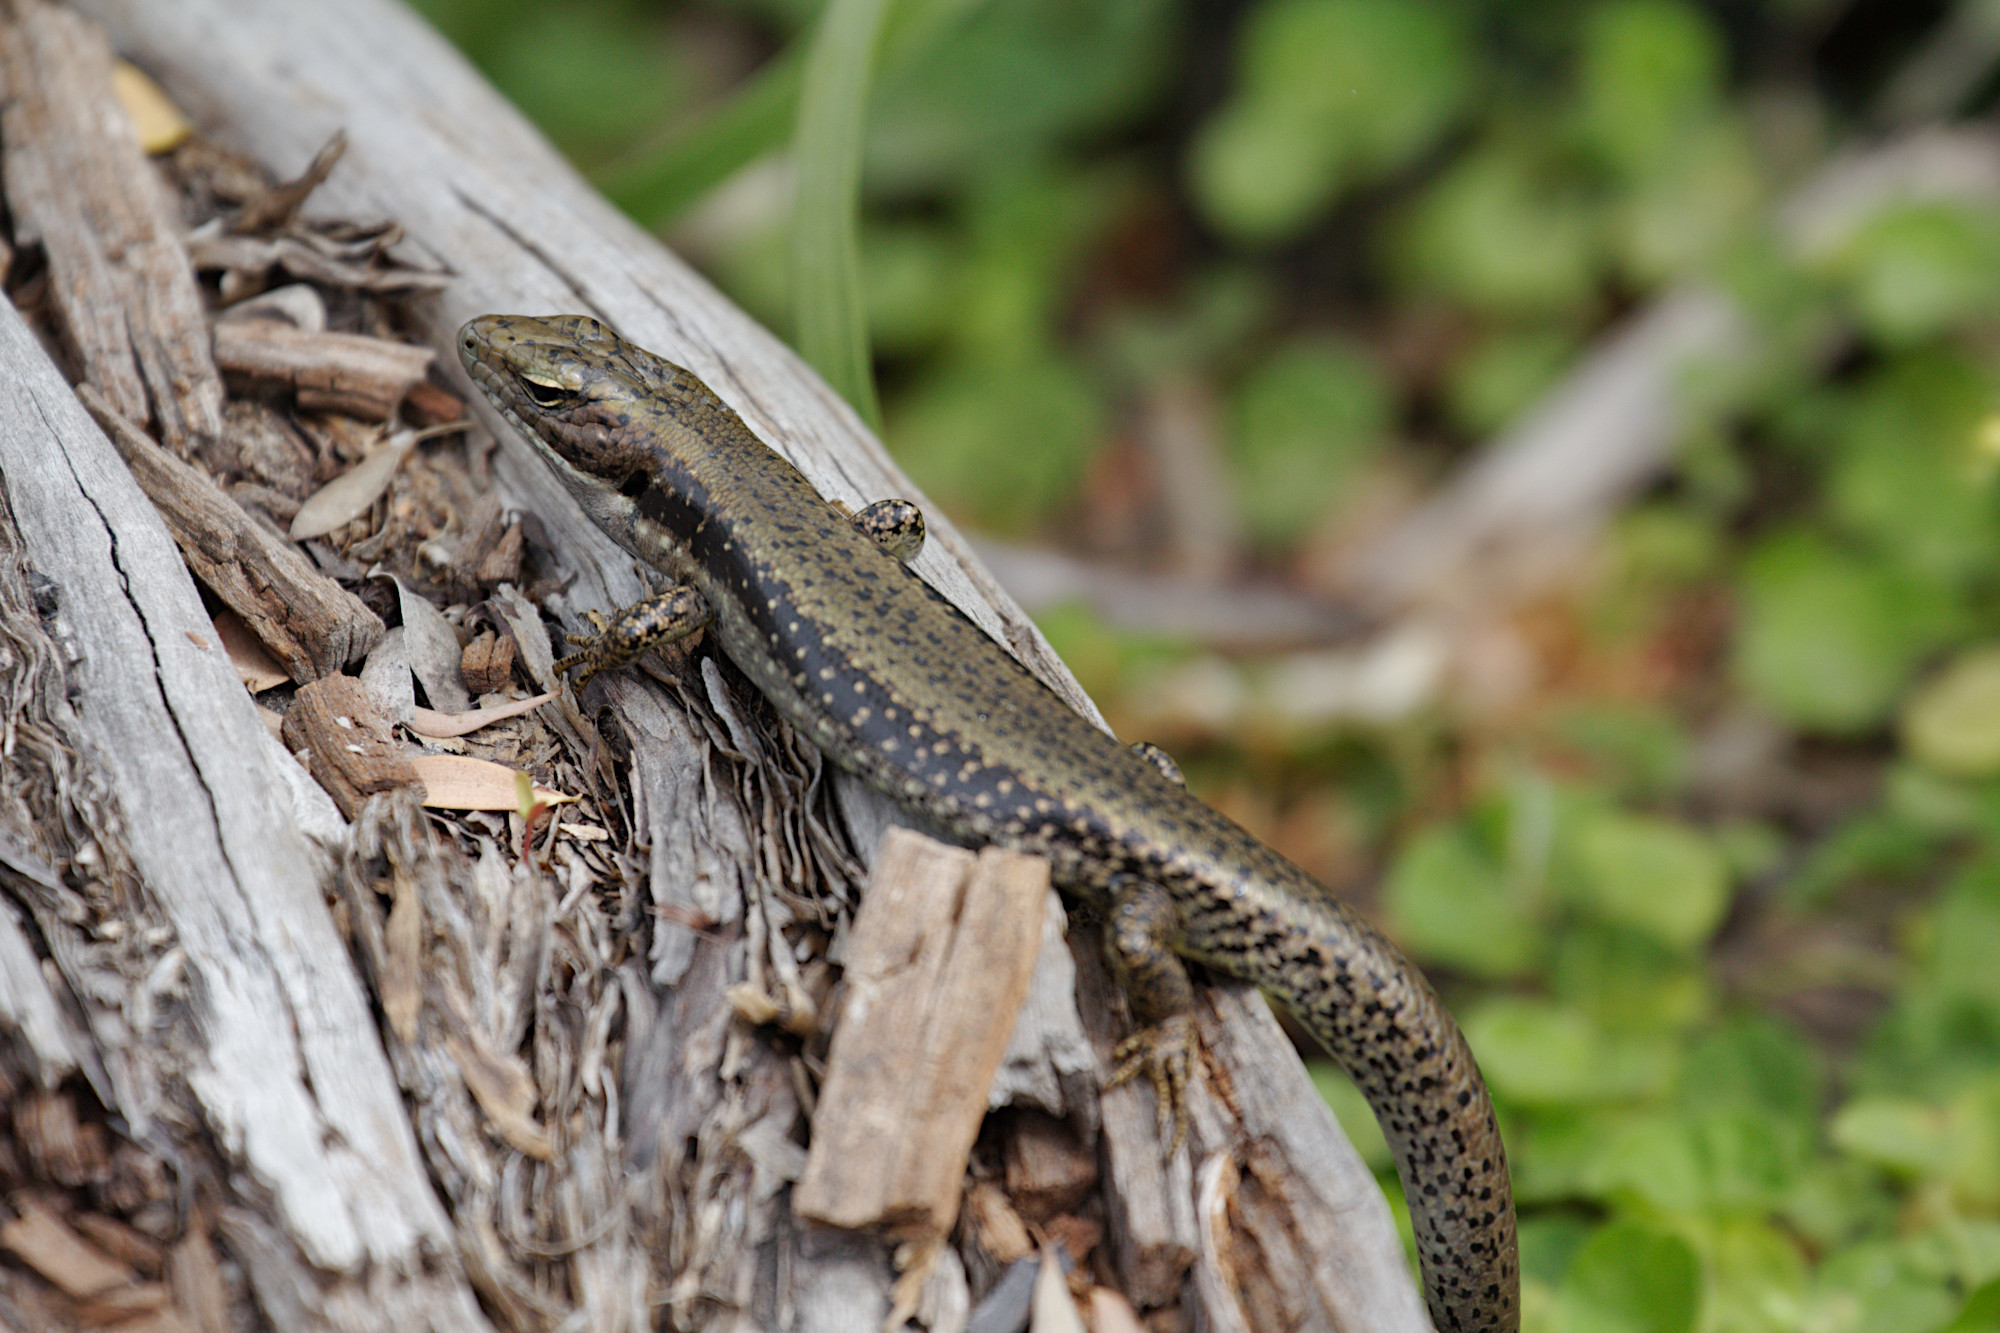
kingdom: Animalia
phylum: Chordata
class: Squamata
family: Scincidae
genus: Eulamprus
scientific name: Eulamprus tympanum
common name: Cool-temperate water-skink
